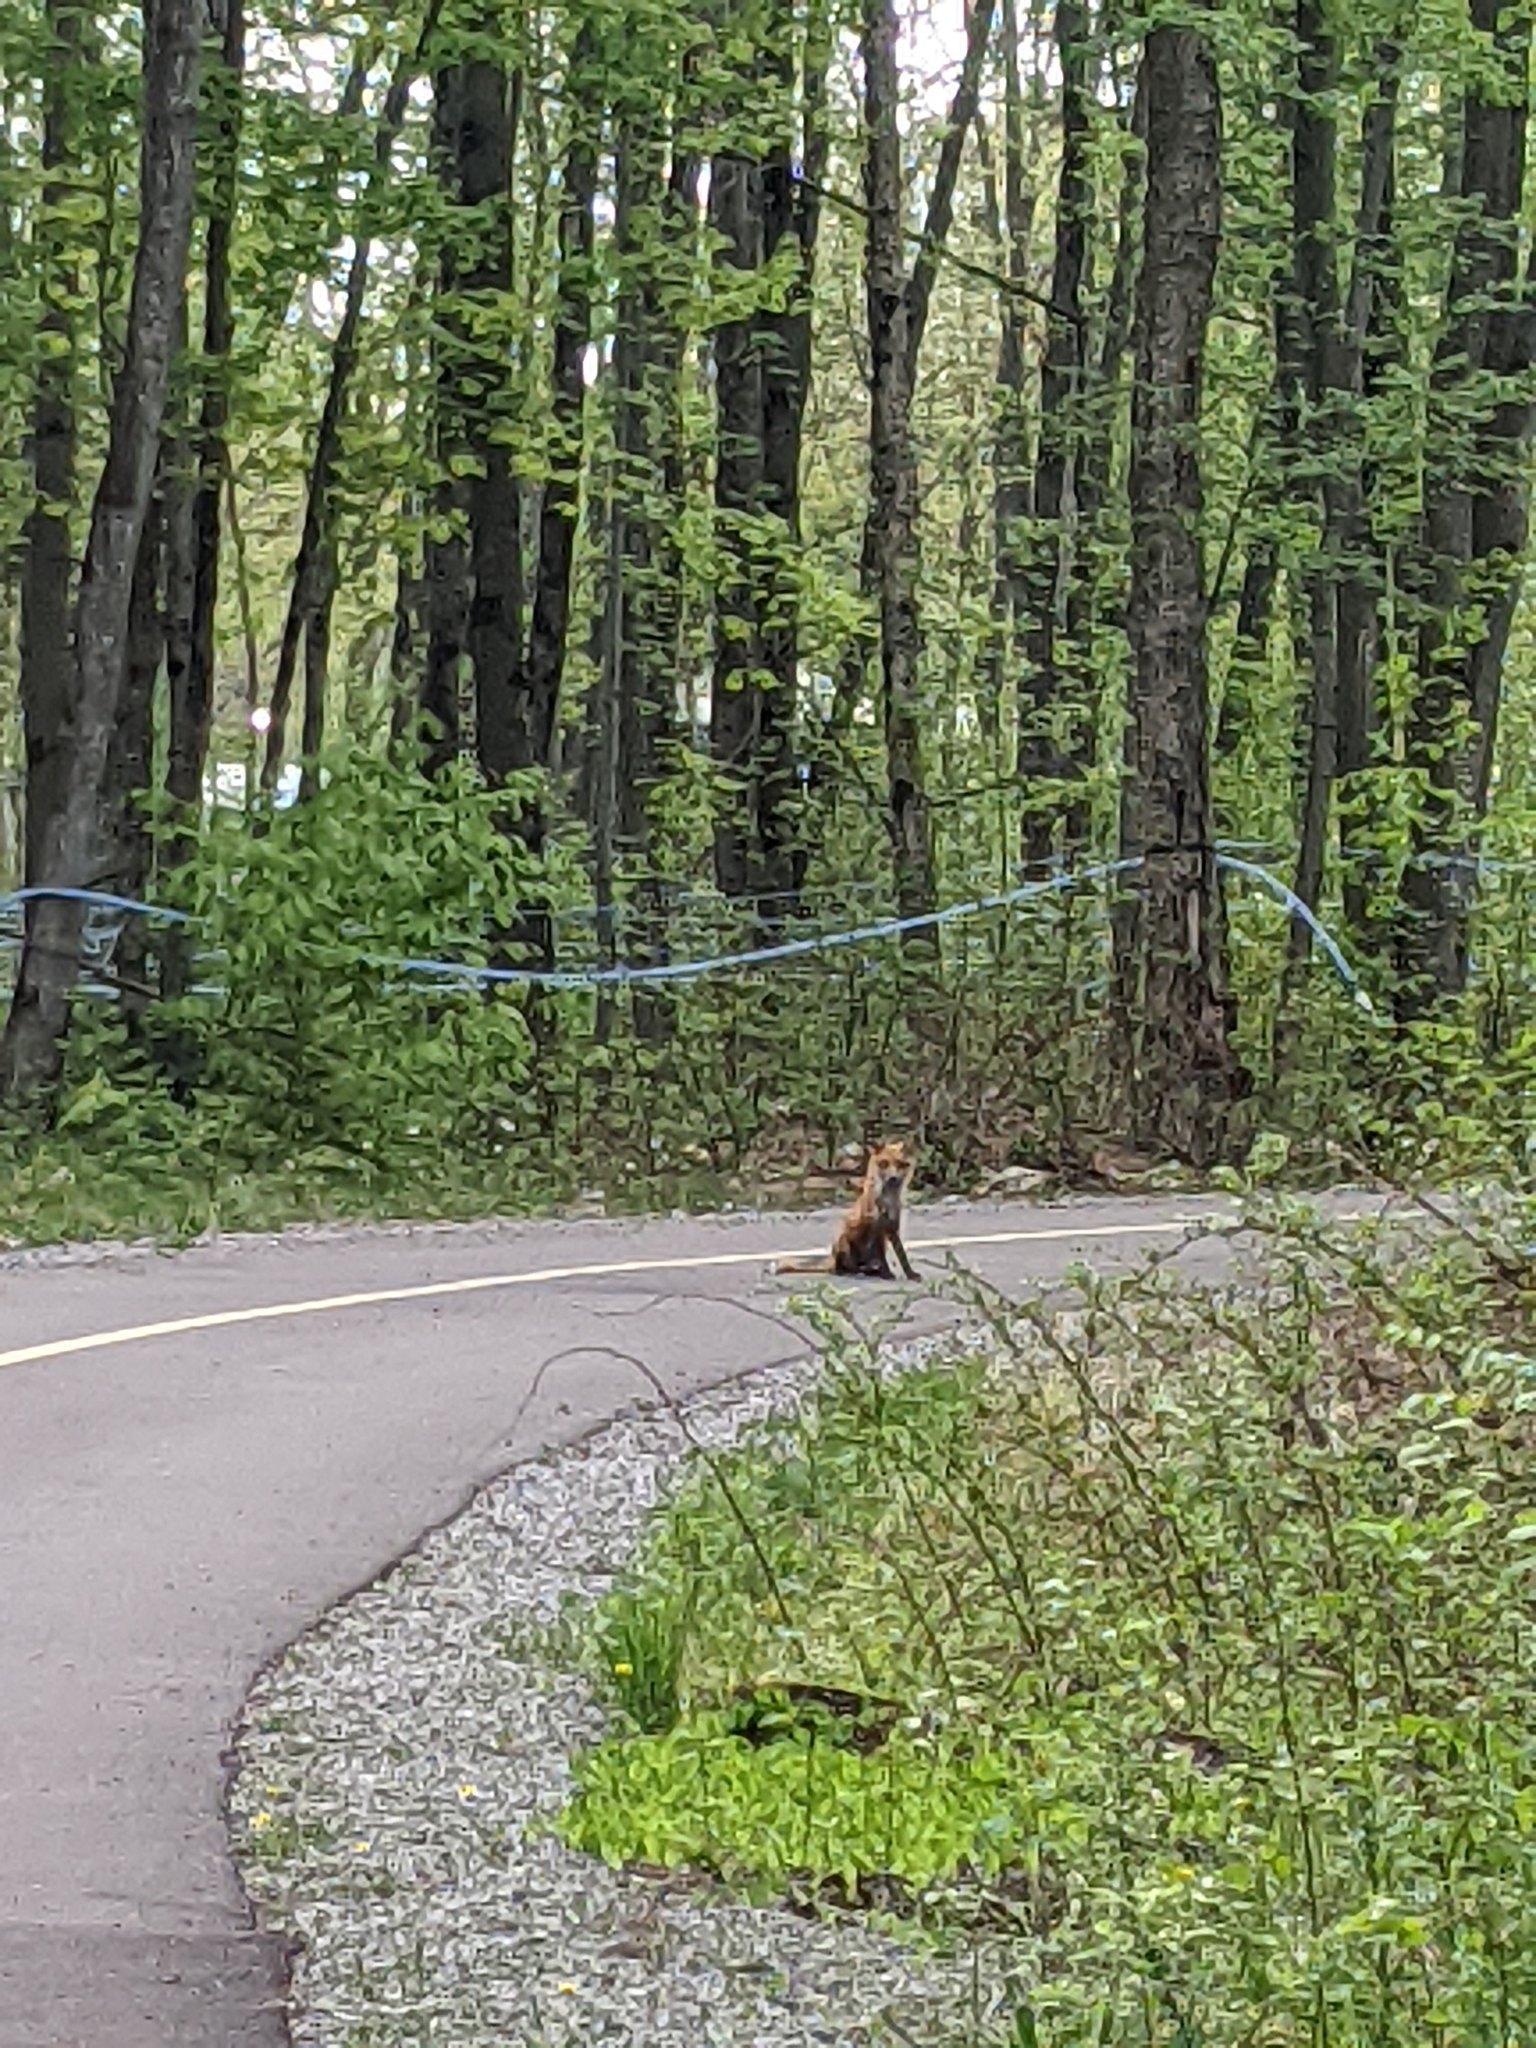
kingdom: Animalia
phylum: Chordata
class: Mammalia
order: Carnivora
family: Canidae
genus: Vulpes
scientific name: Vulpes vulpes
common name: Red fox
